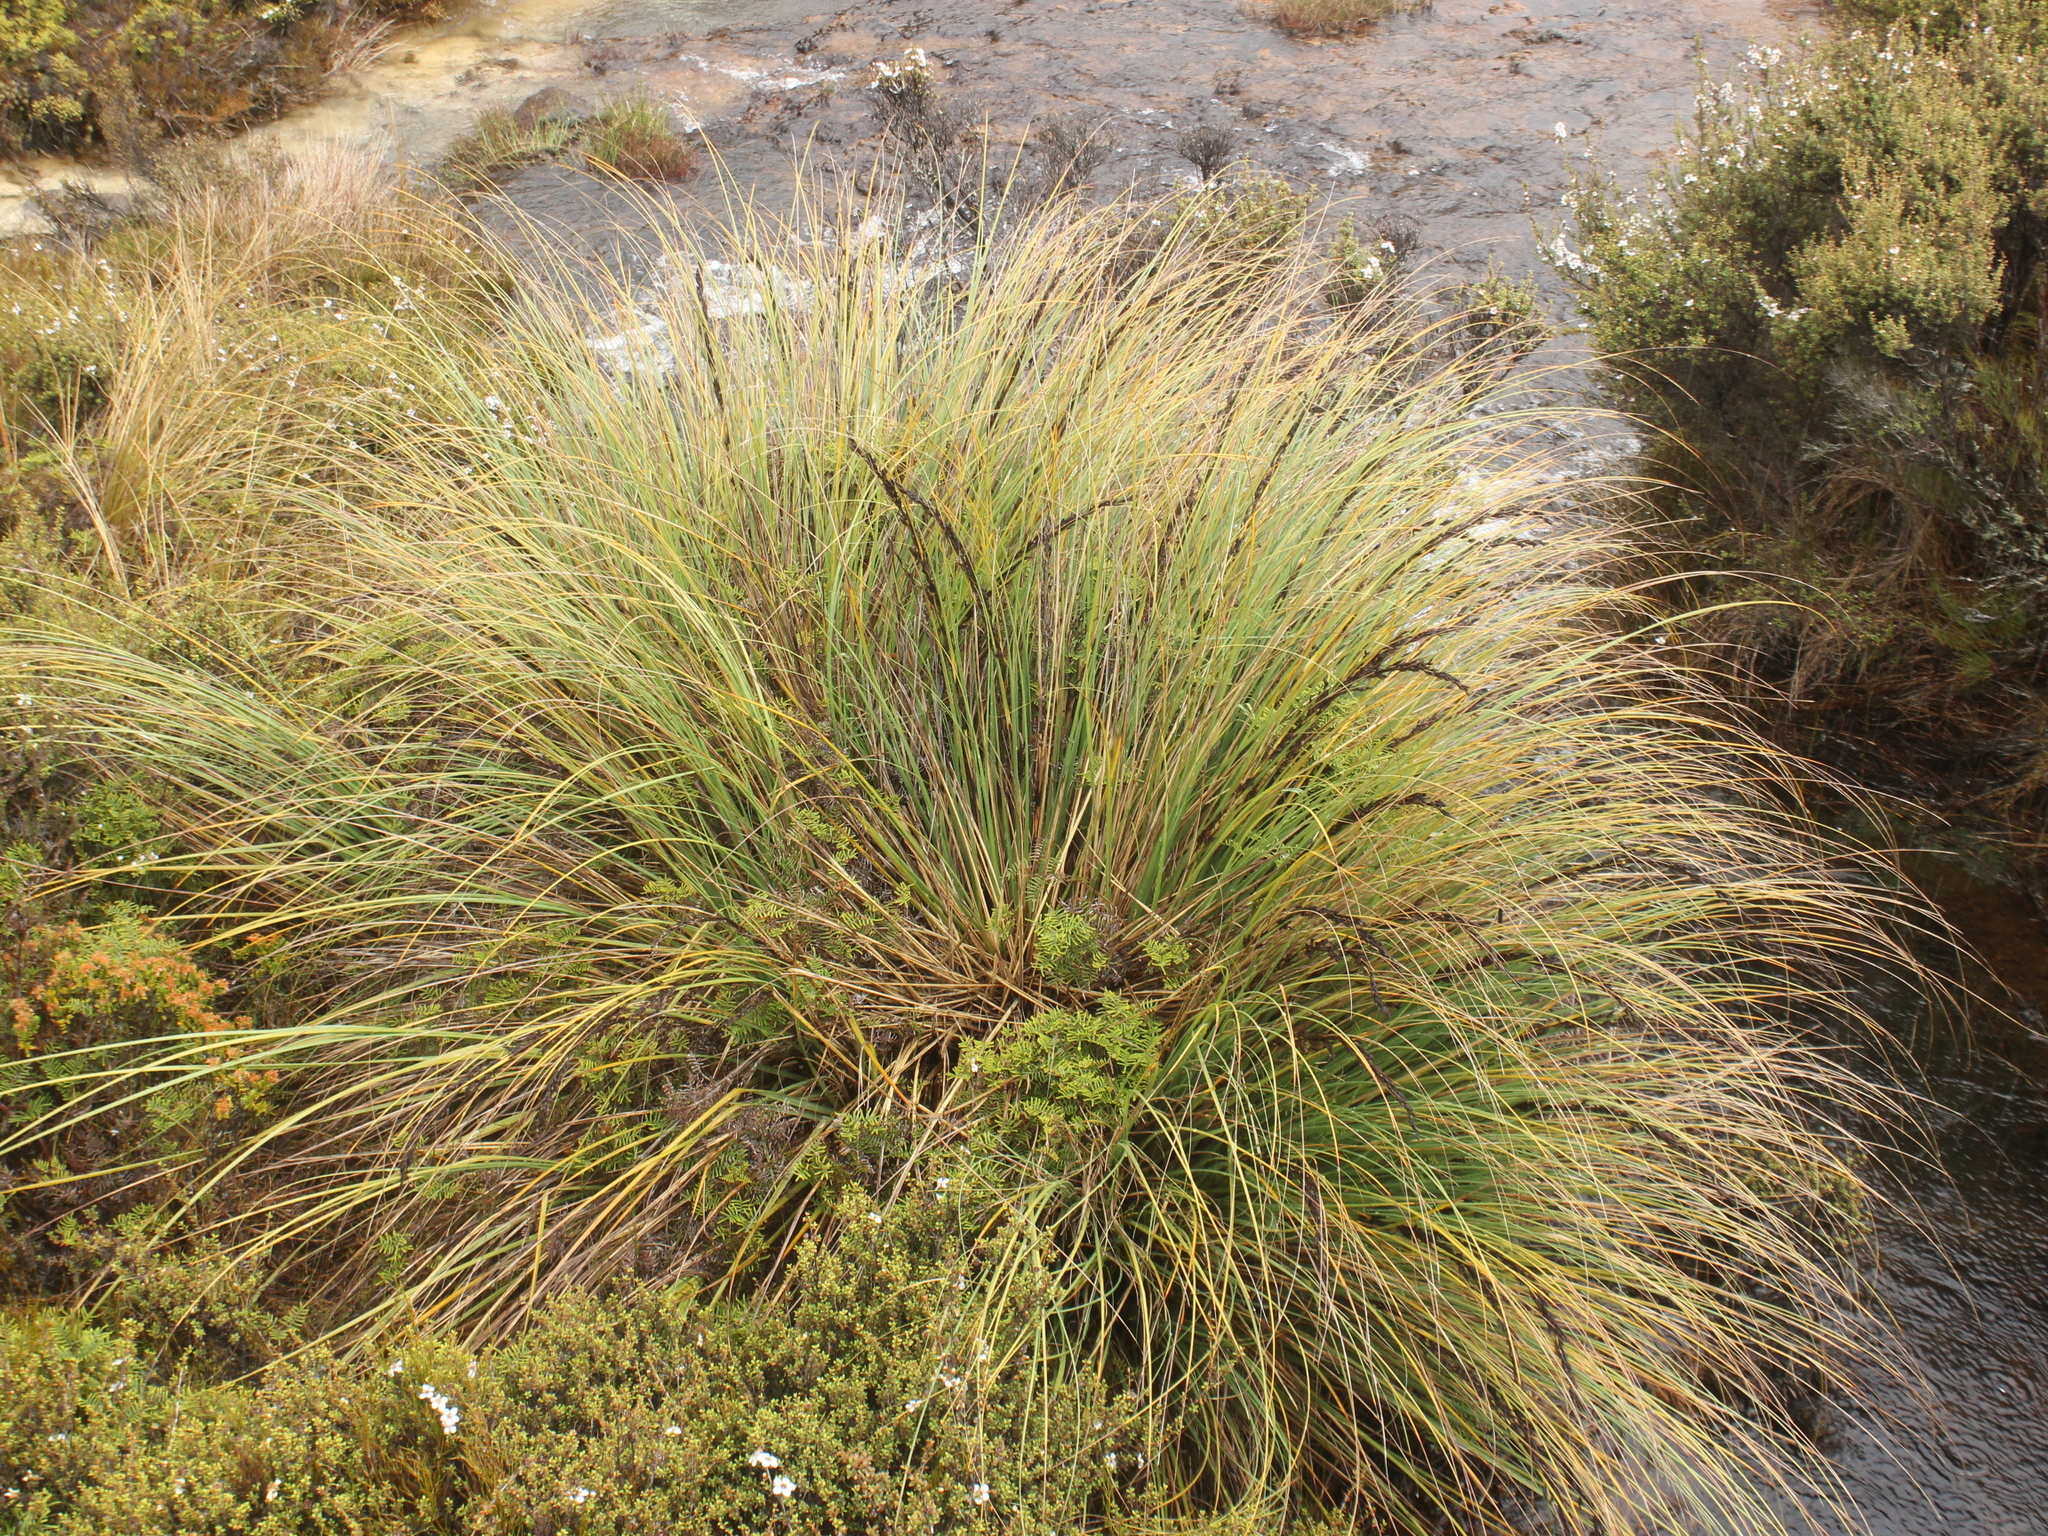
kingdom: Plantae
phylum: Tracheophyta
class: Liliopsida
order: Poales
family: Cyperaceae
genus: Gahnia
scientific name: Gahnia procera
